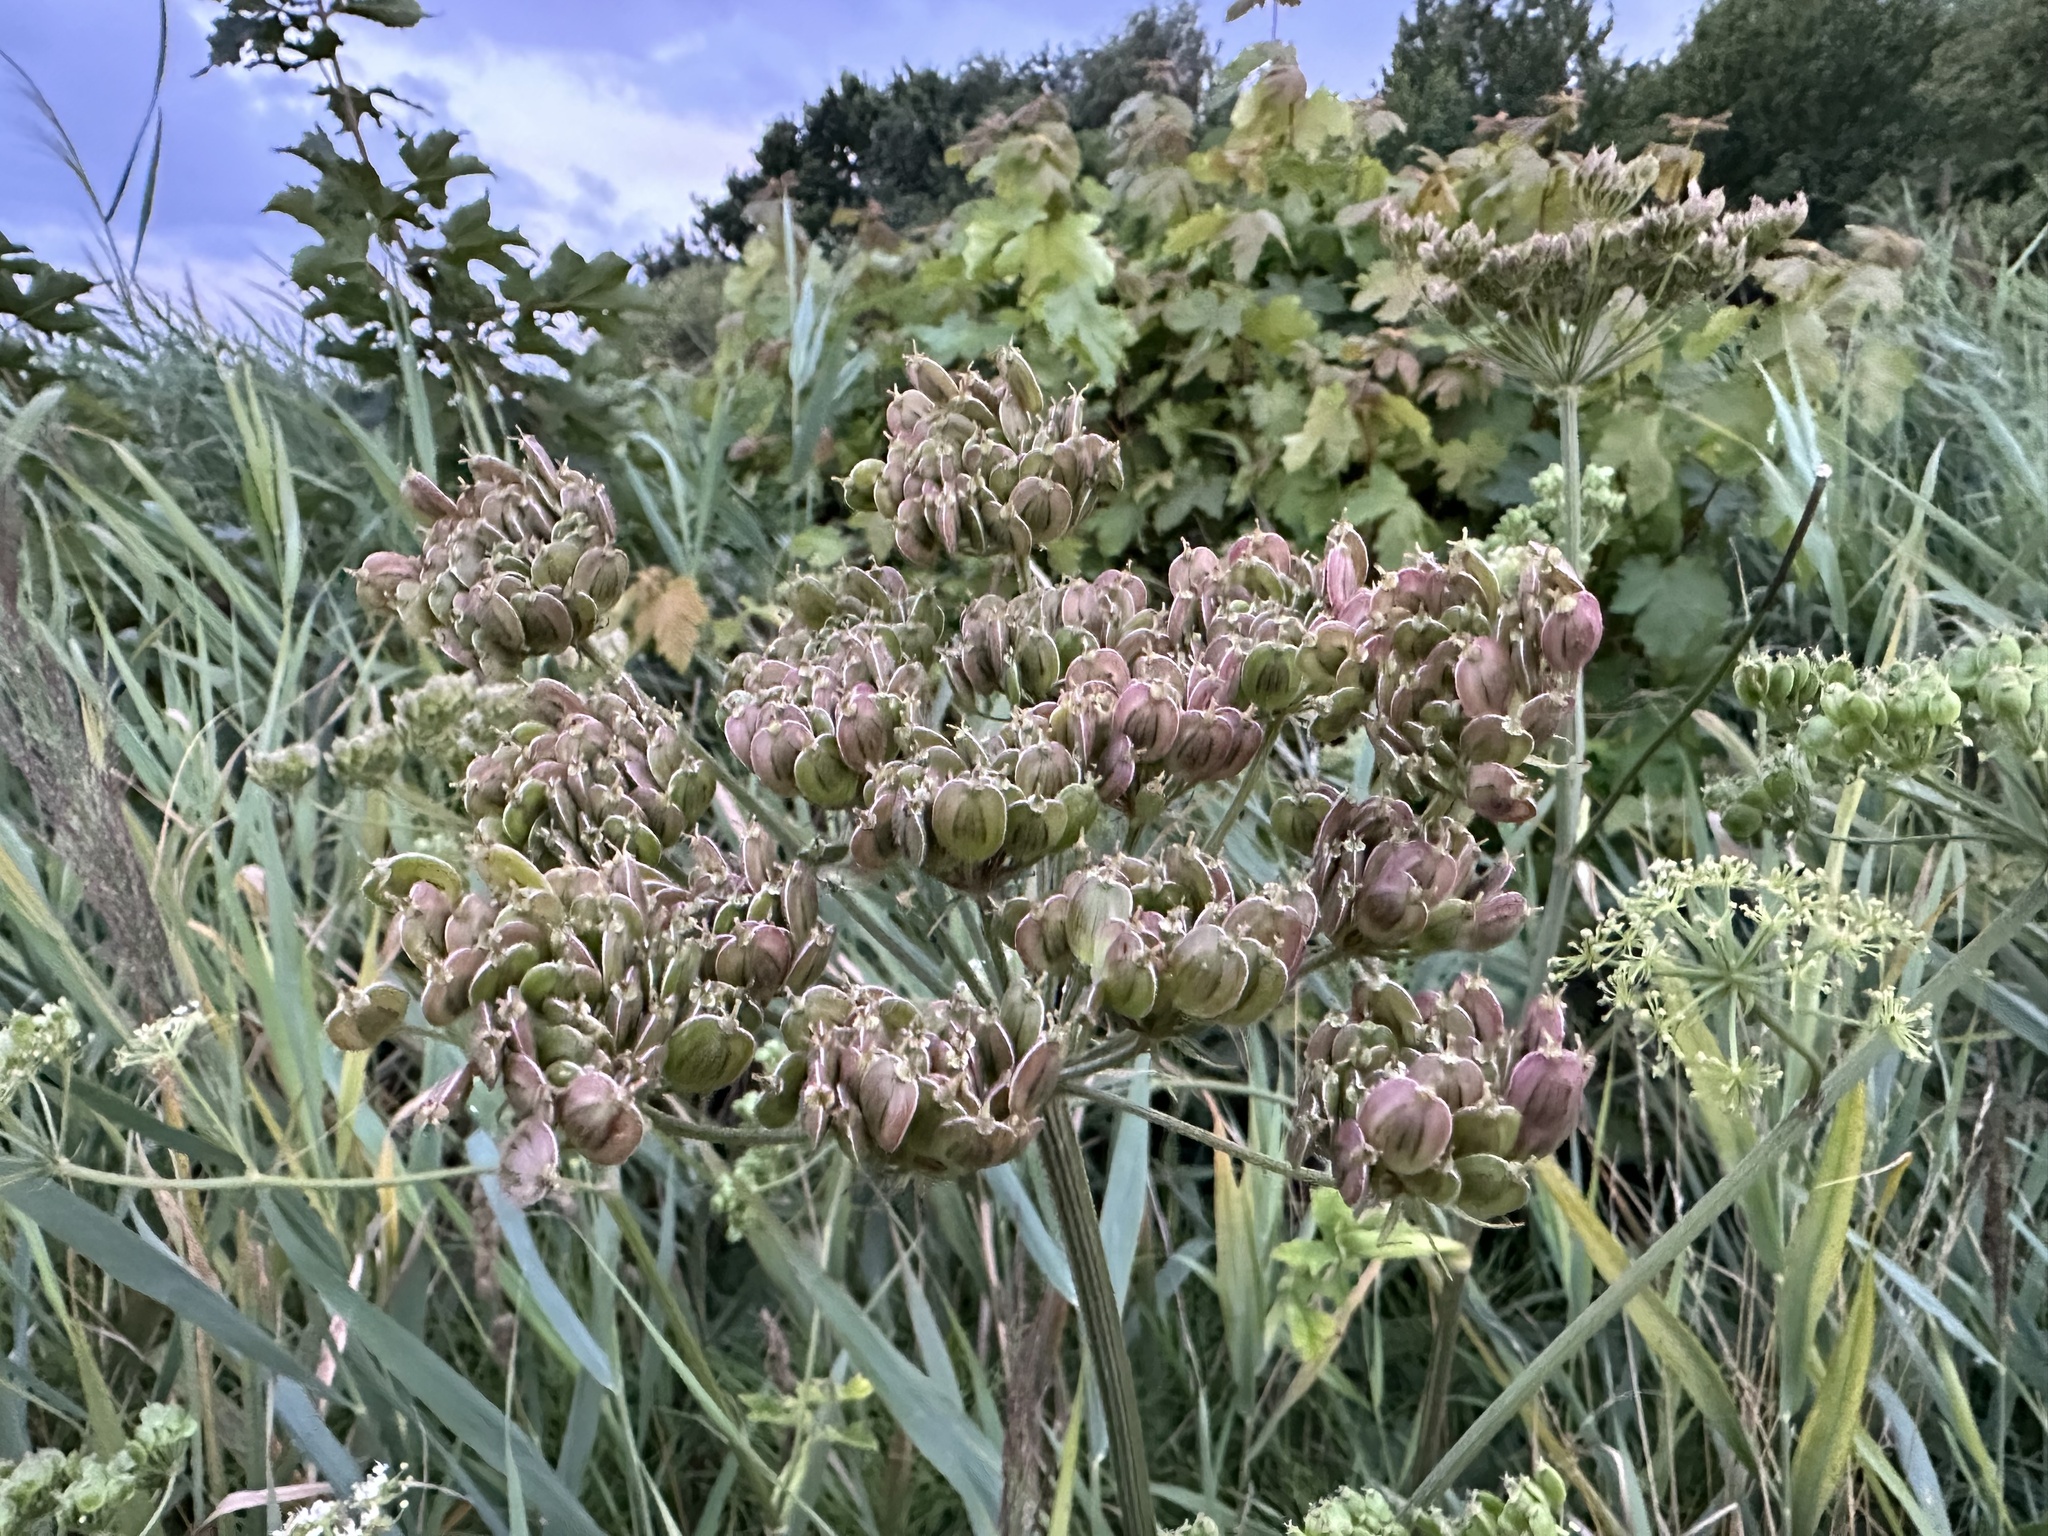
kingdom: Plantae
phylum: Tracheophyta
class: Magnoliopsida
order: Apiales
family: Apiaceae
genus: Heracleum
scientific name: Heracleum sphondylium
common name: Hogweed
